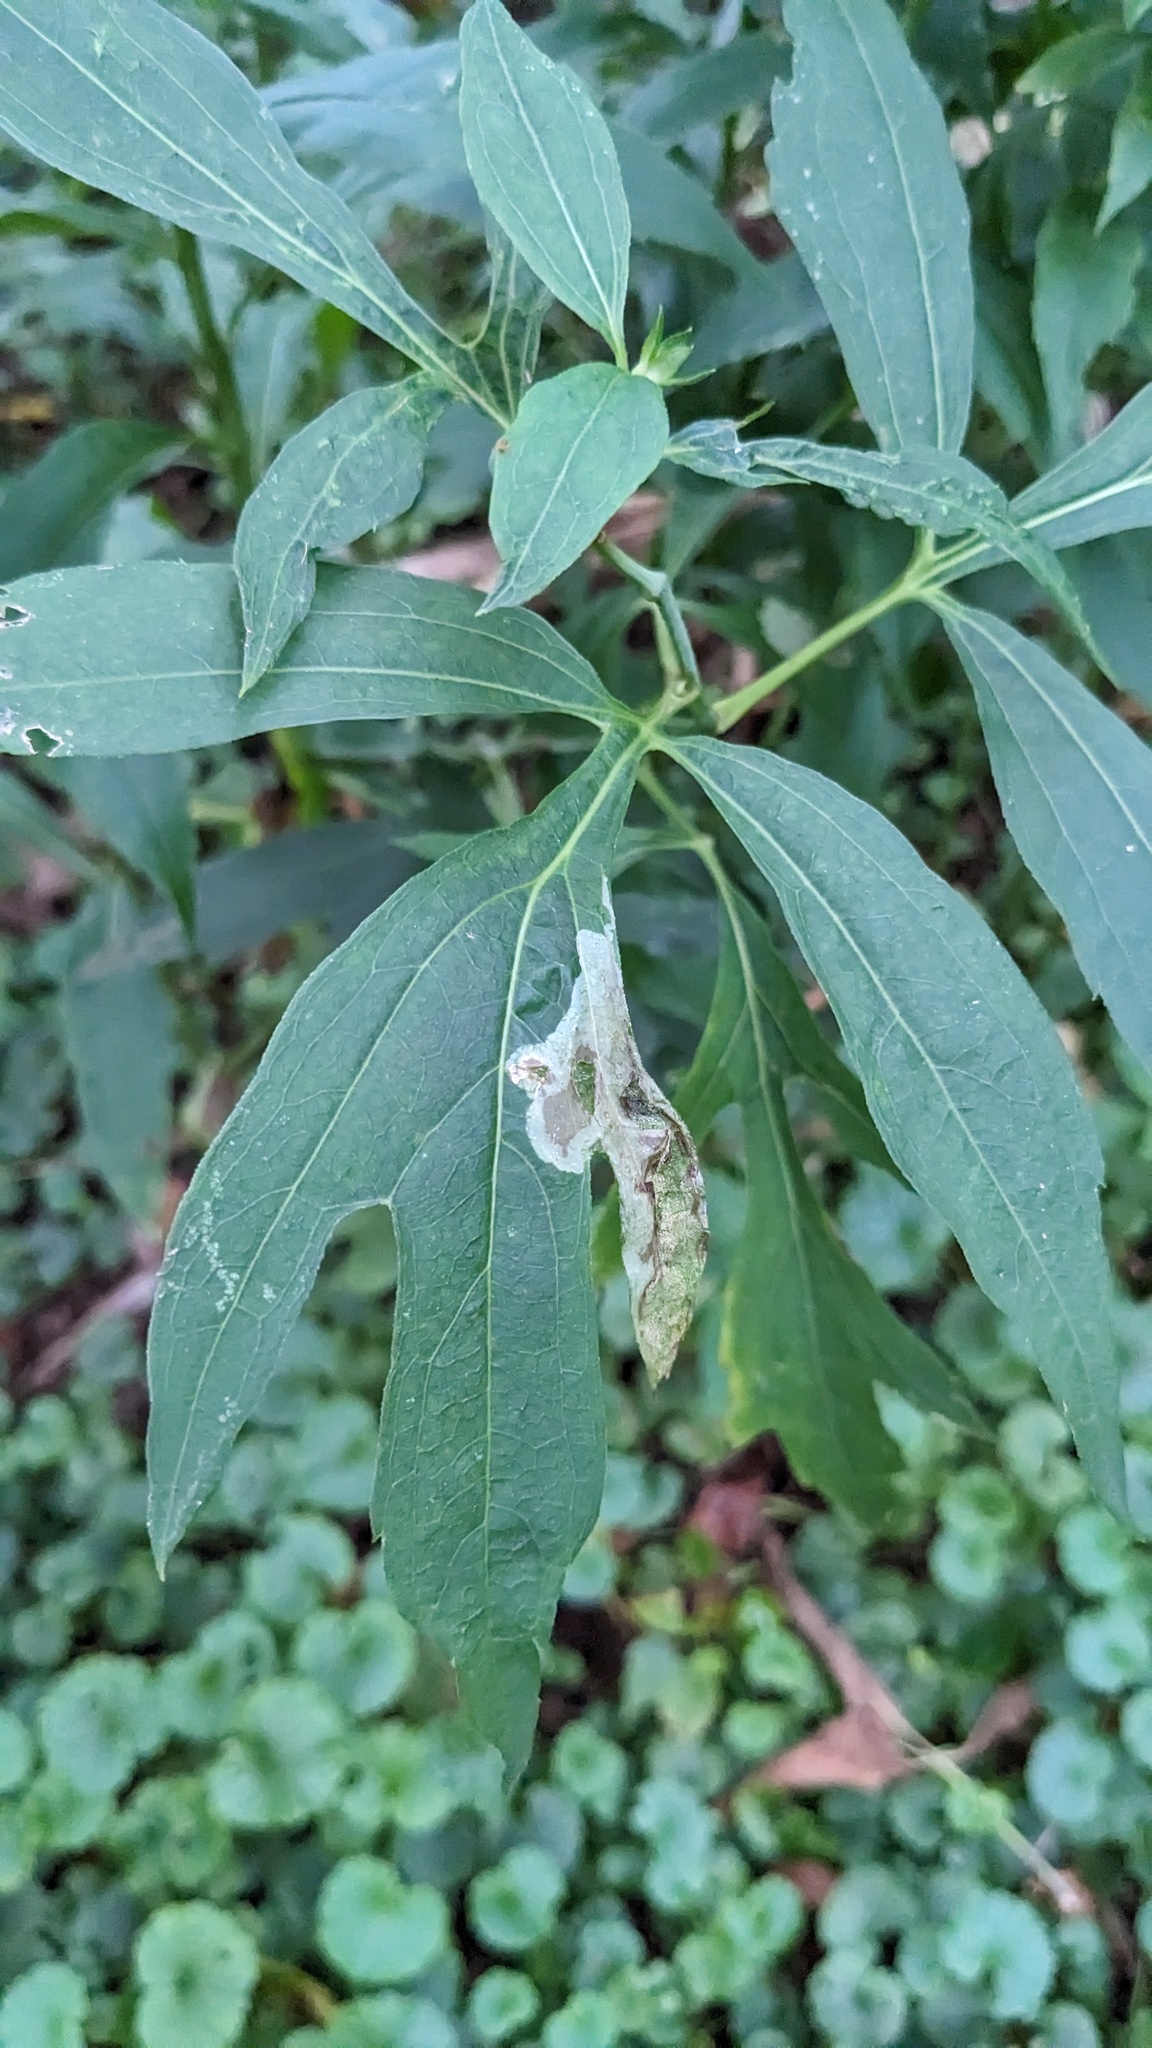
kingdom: Animalia
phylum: Arthropoda
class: Insecta
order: Diptera
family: Agromyzidae
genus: Calycomyza
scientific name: Calycomyza frickiana
